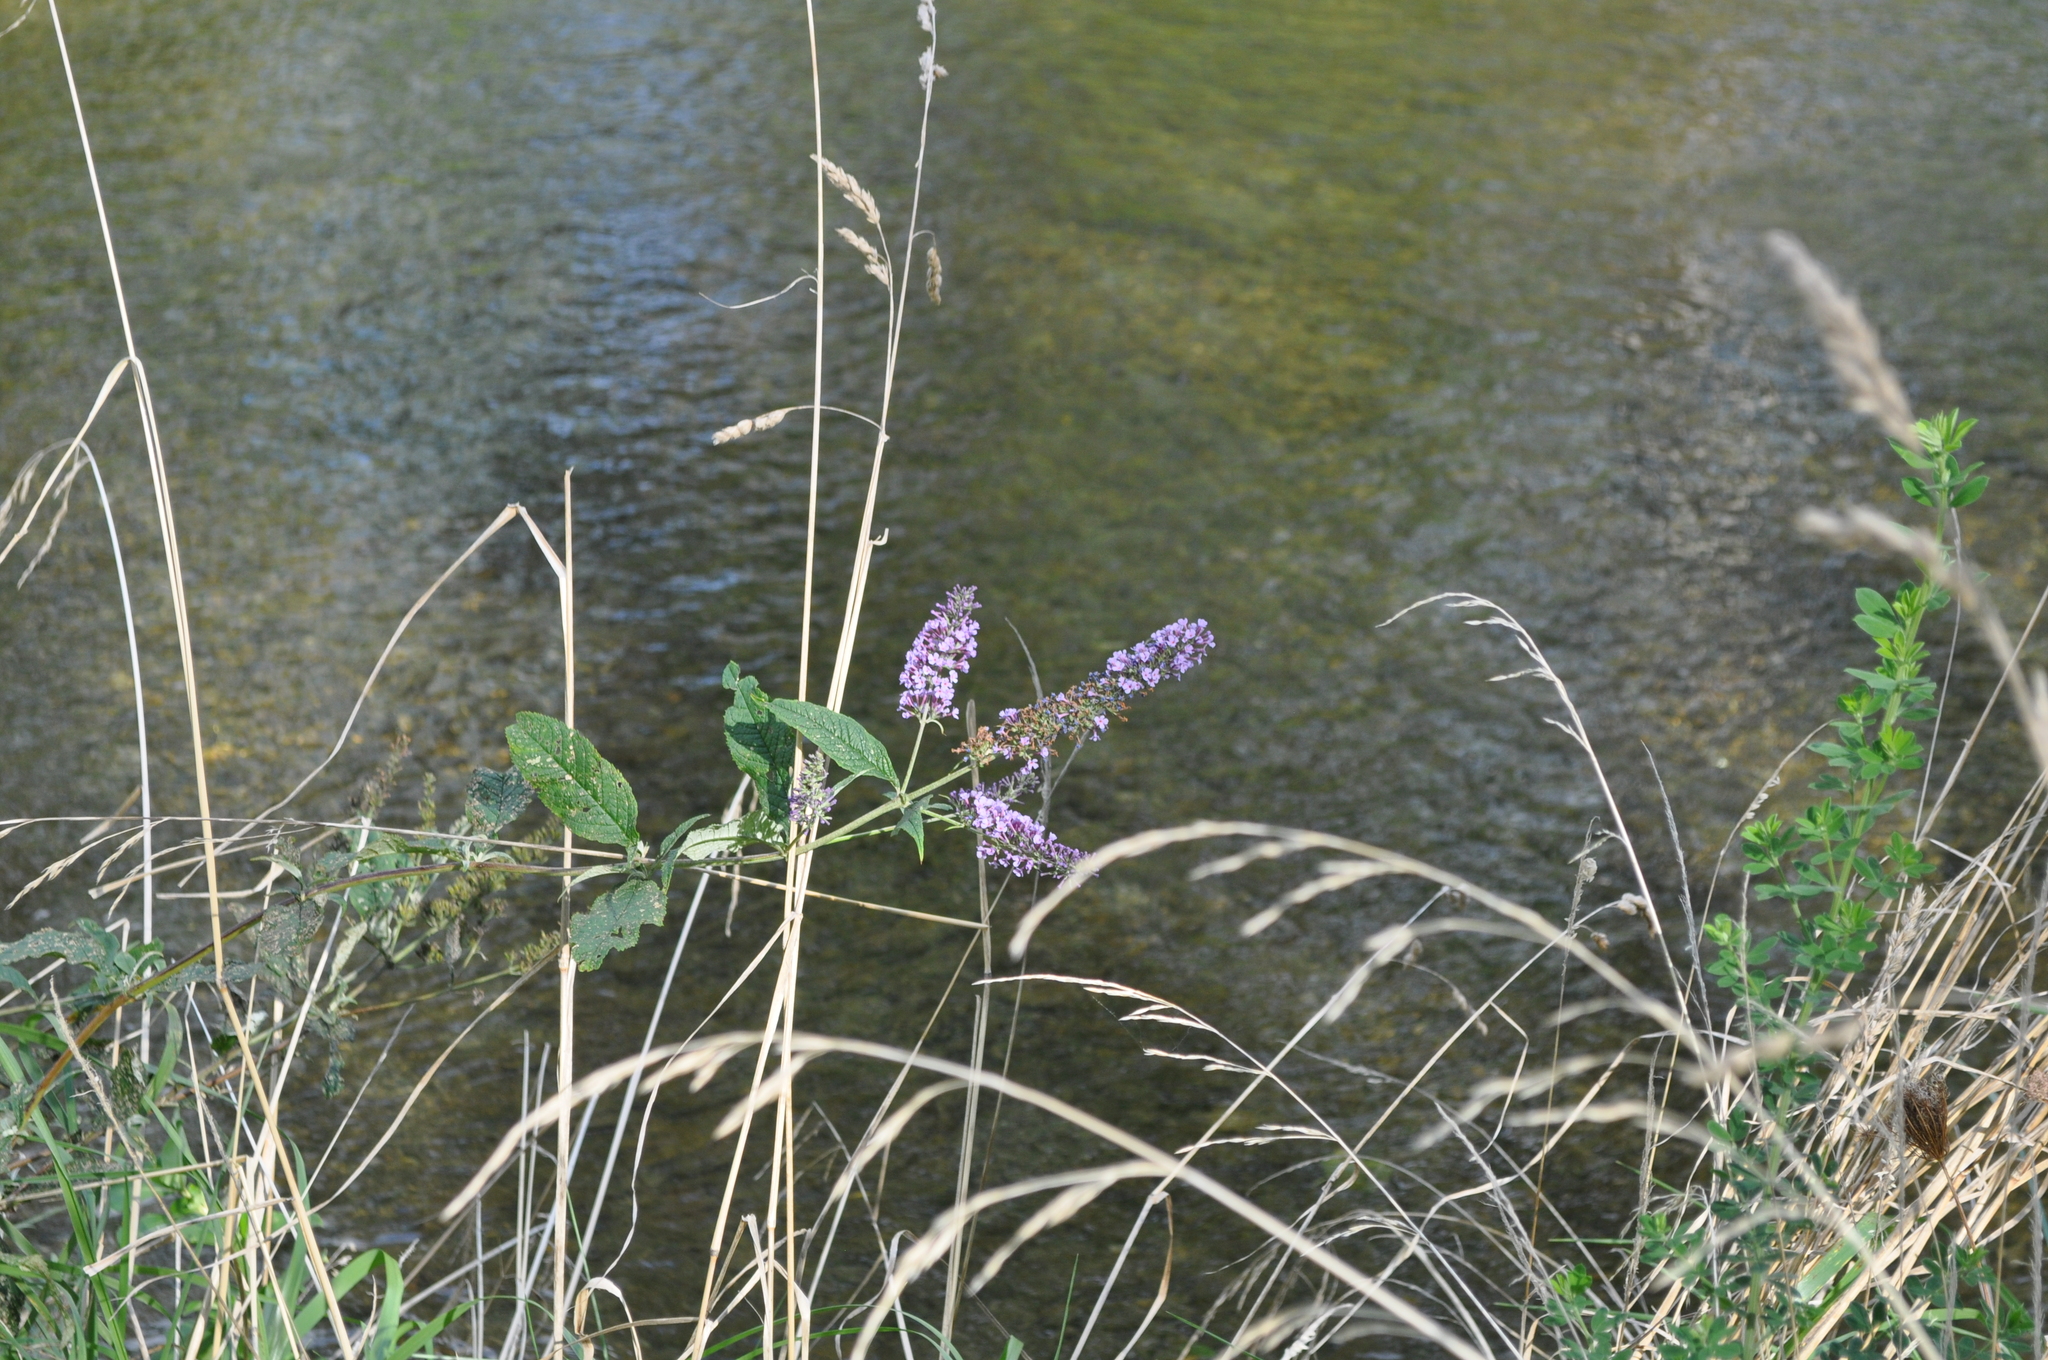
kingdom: Plantae
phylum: Tracheophyta
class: Magnoliopsida
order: Lamiales
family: Scrophulariaceae
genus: Buddleja
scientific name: Buddleja davidii
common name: Butterfly-bush
